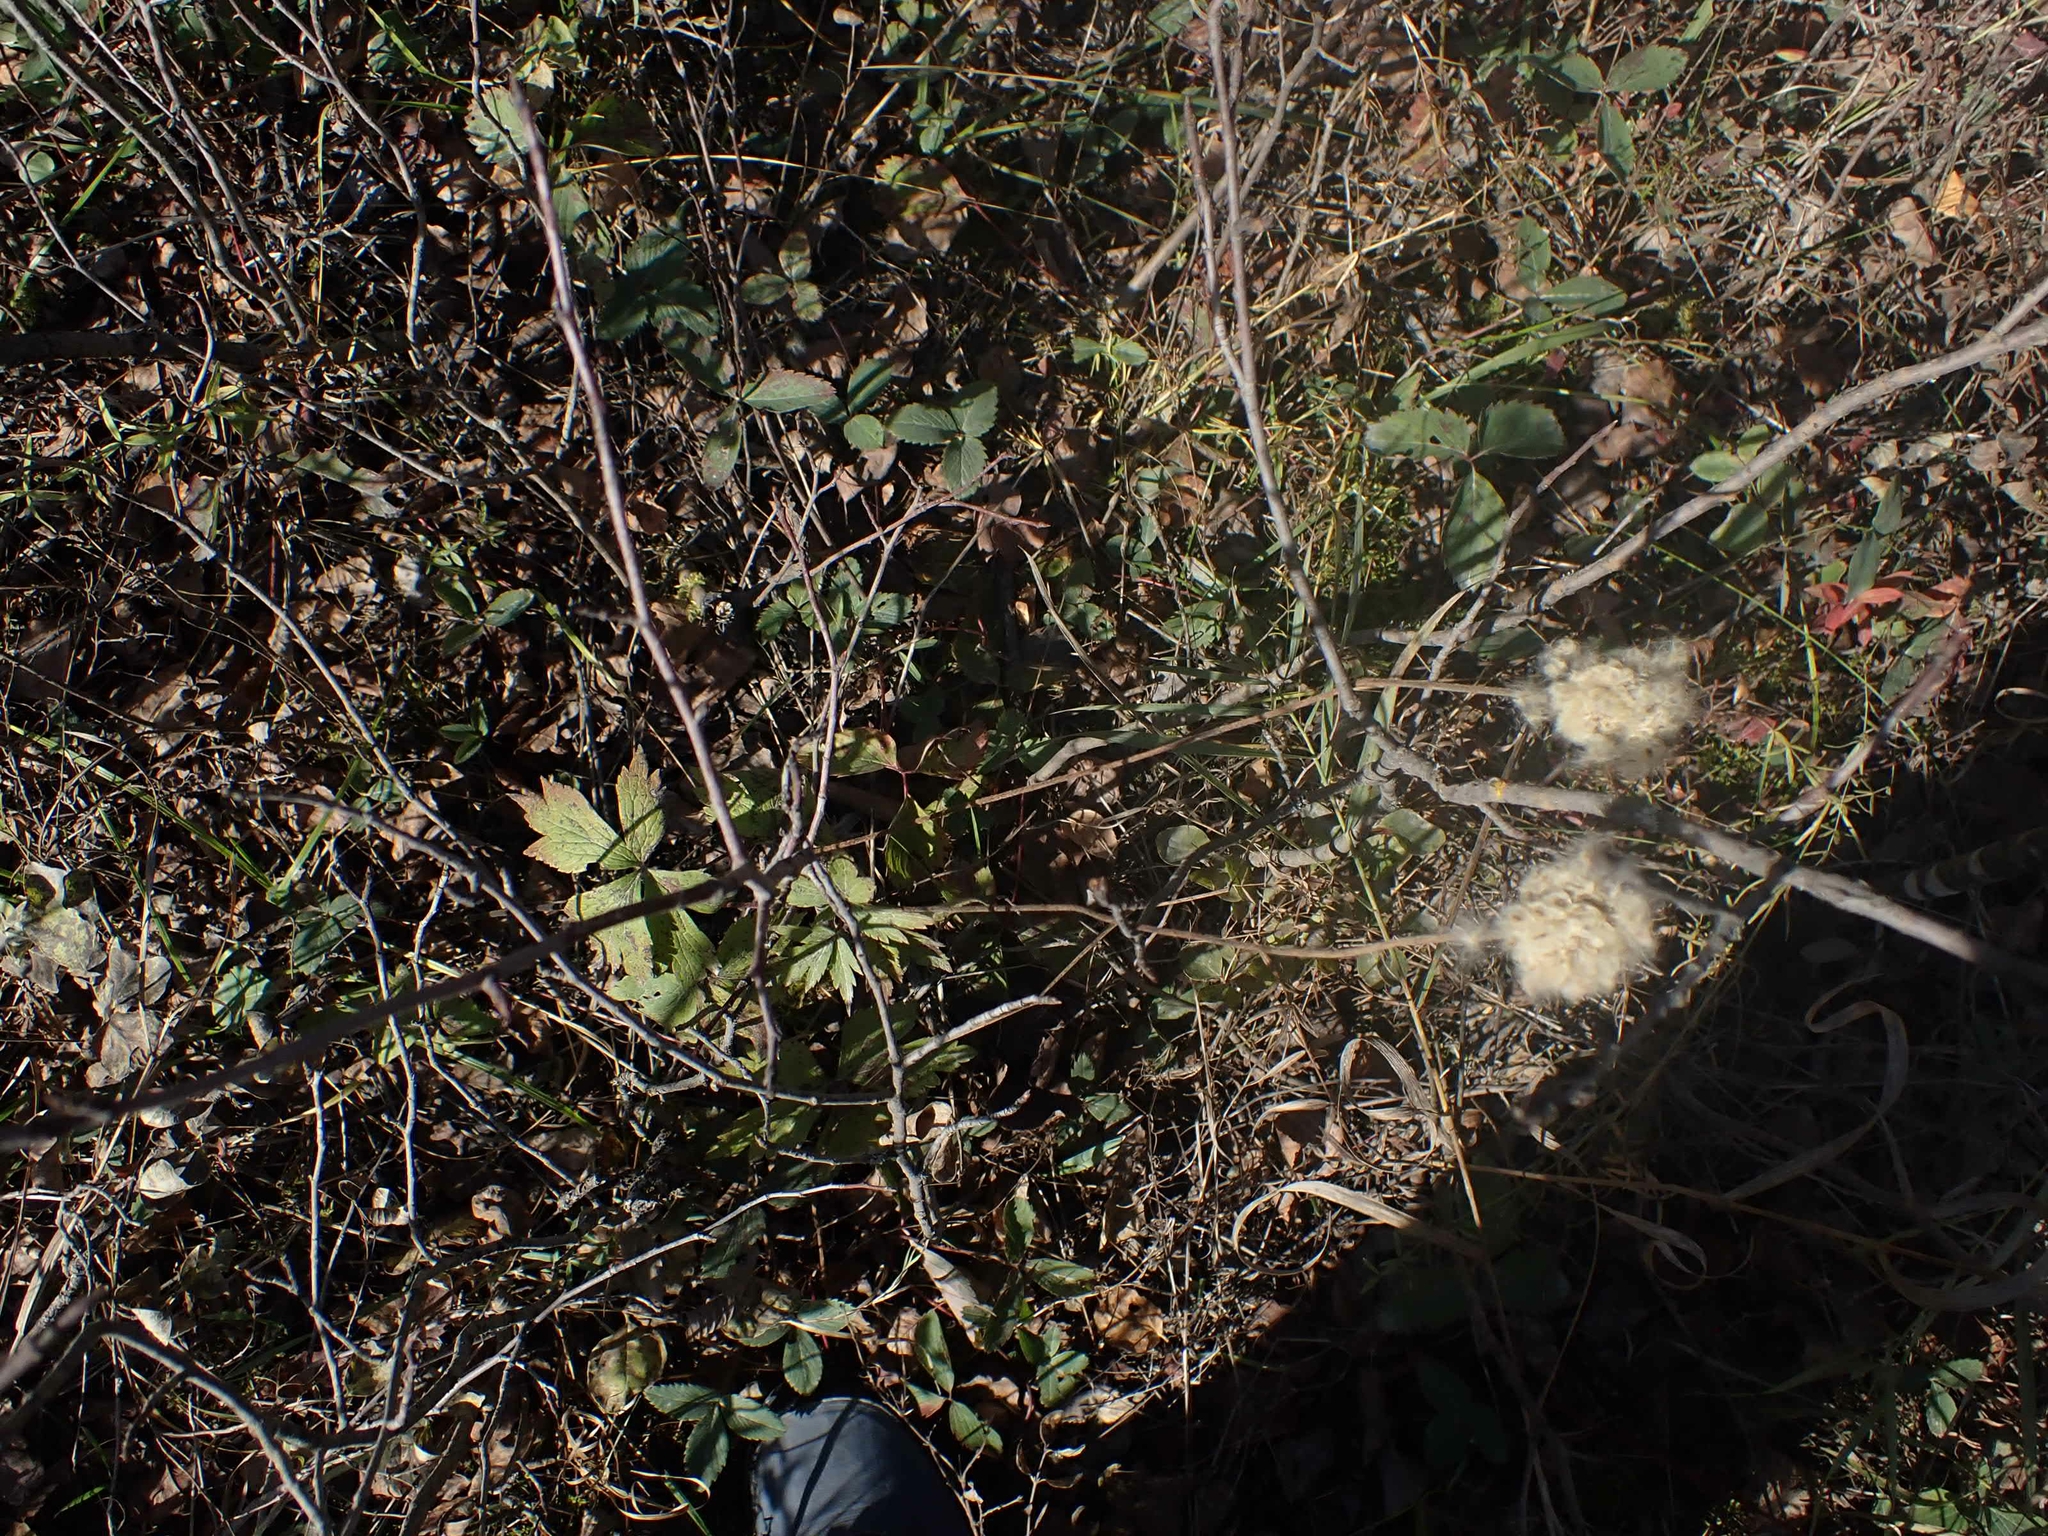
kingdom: Plantae
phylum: Tracheophyta
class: Magnoliopsida
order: Ranunculales
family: Ranunculaceae
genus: Anemone
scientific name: Anemone cylindrica
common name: Candle anemone
